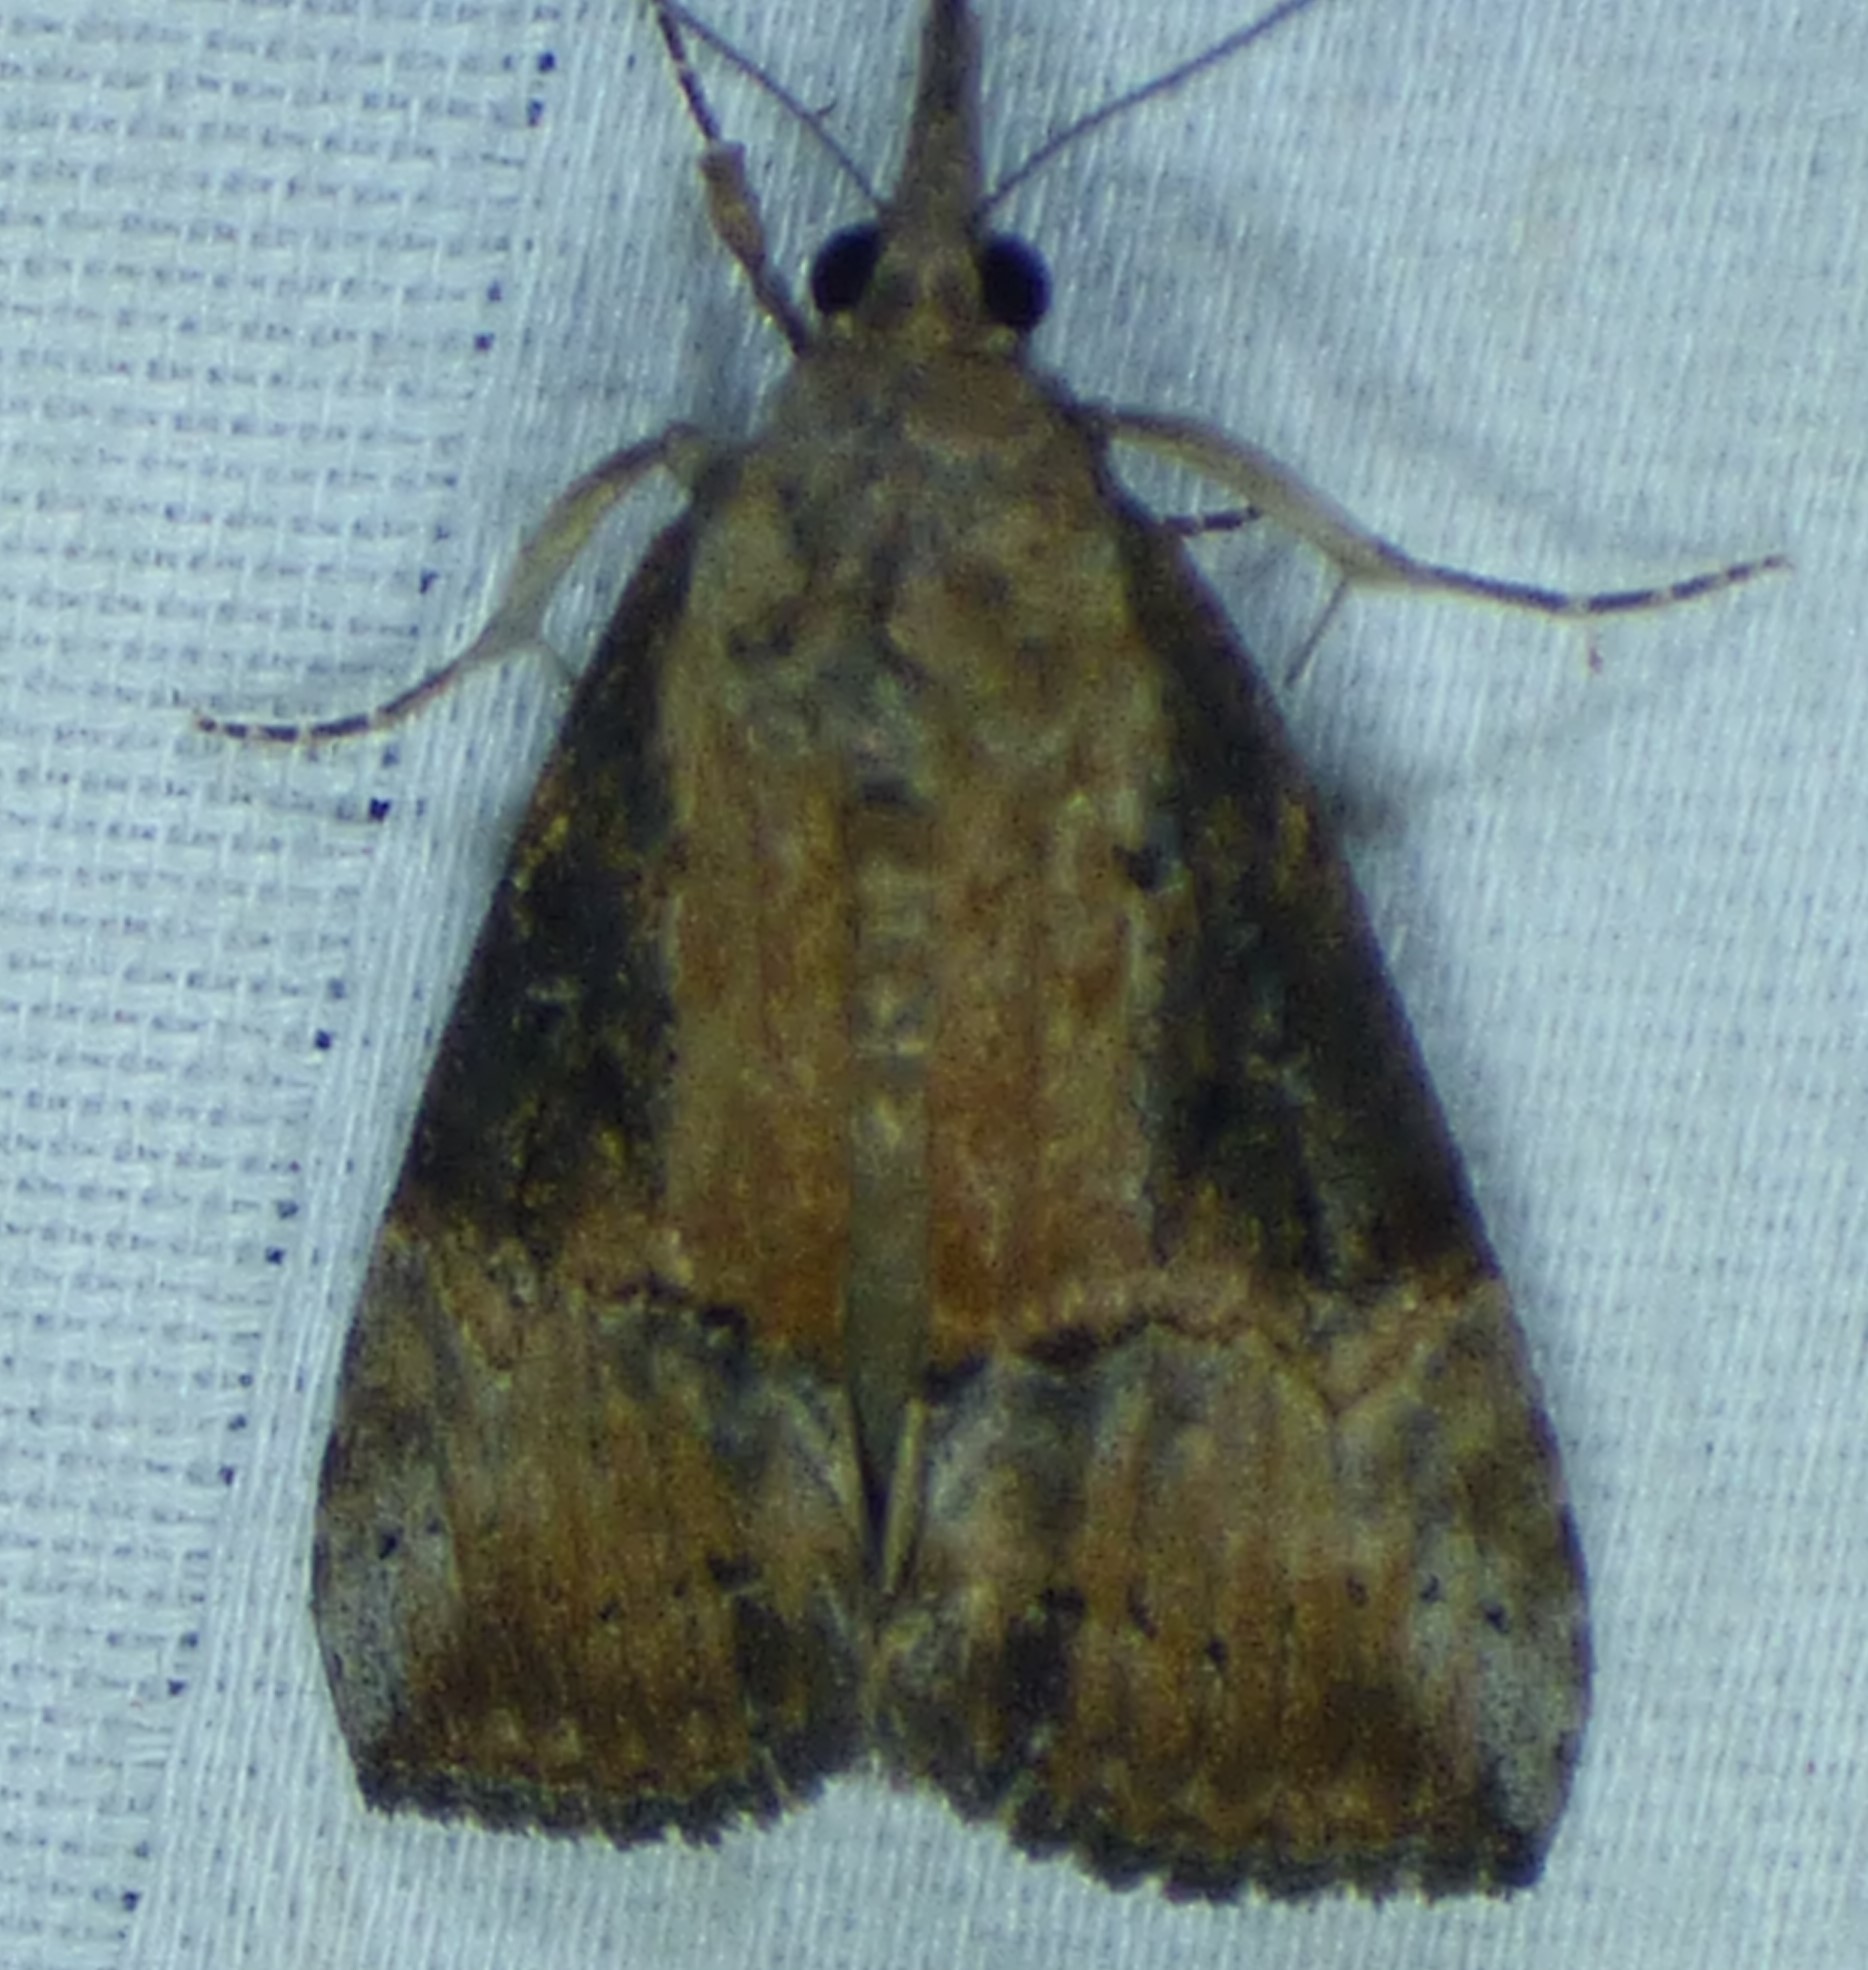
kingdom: Animalia
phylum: Arthropoda
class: Insecta
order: Lepidoptera
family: Erebidae
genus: Hypena
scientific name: Hypena scabra
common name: Green cloverworm
